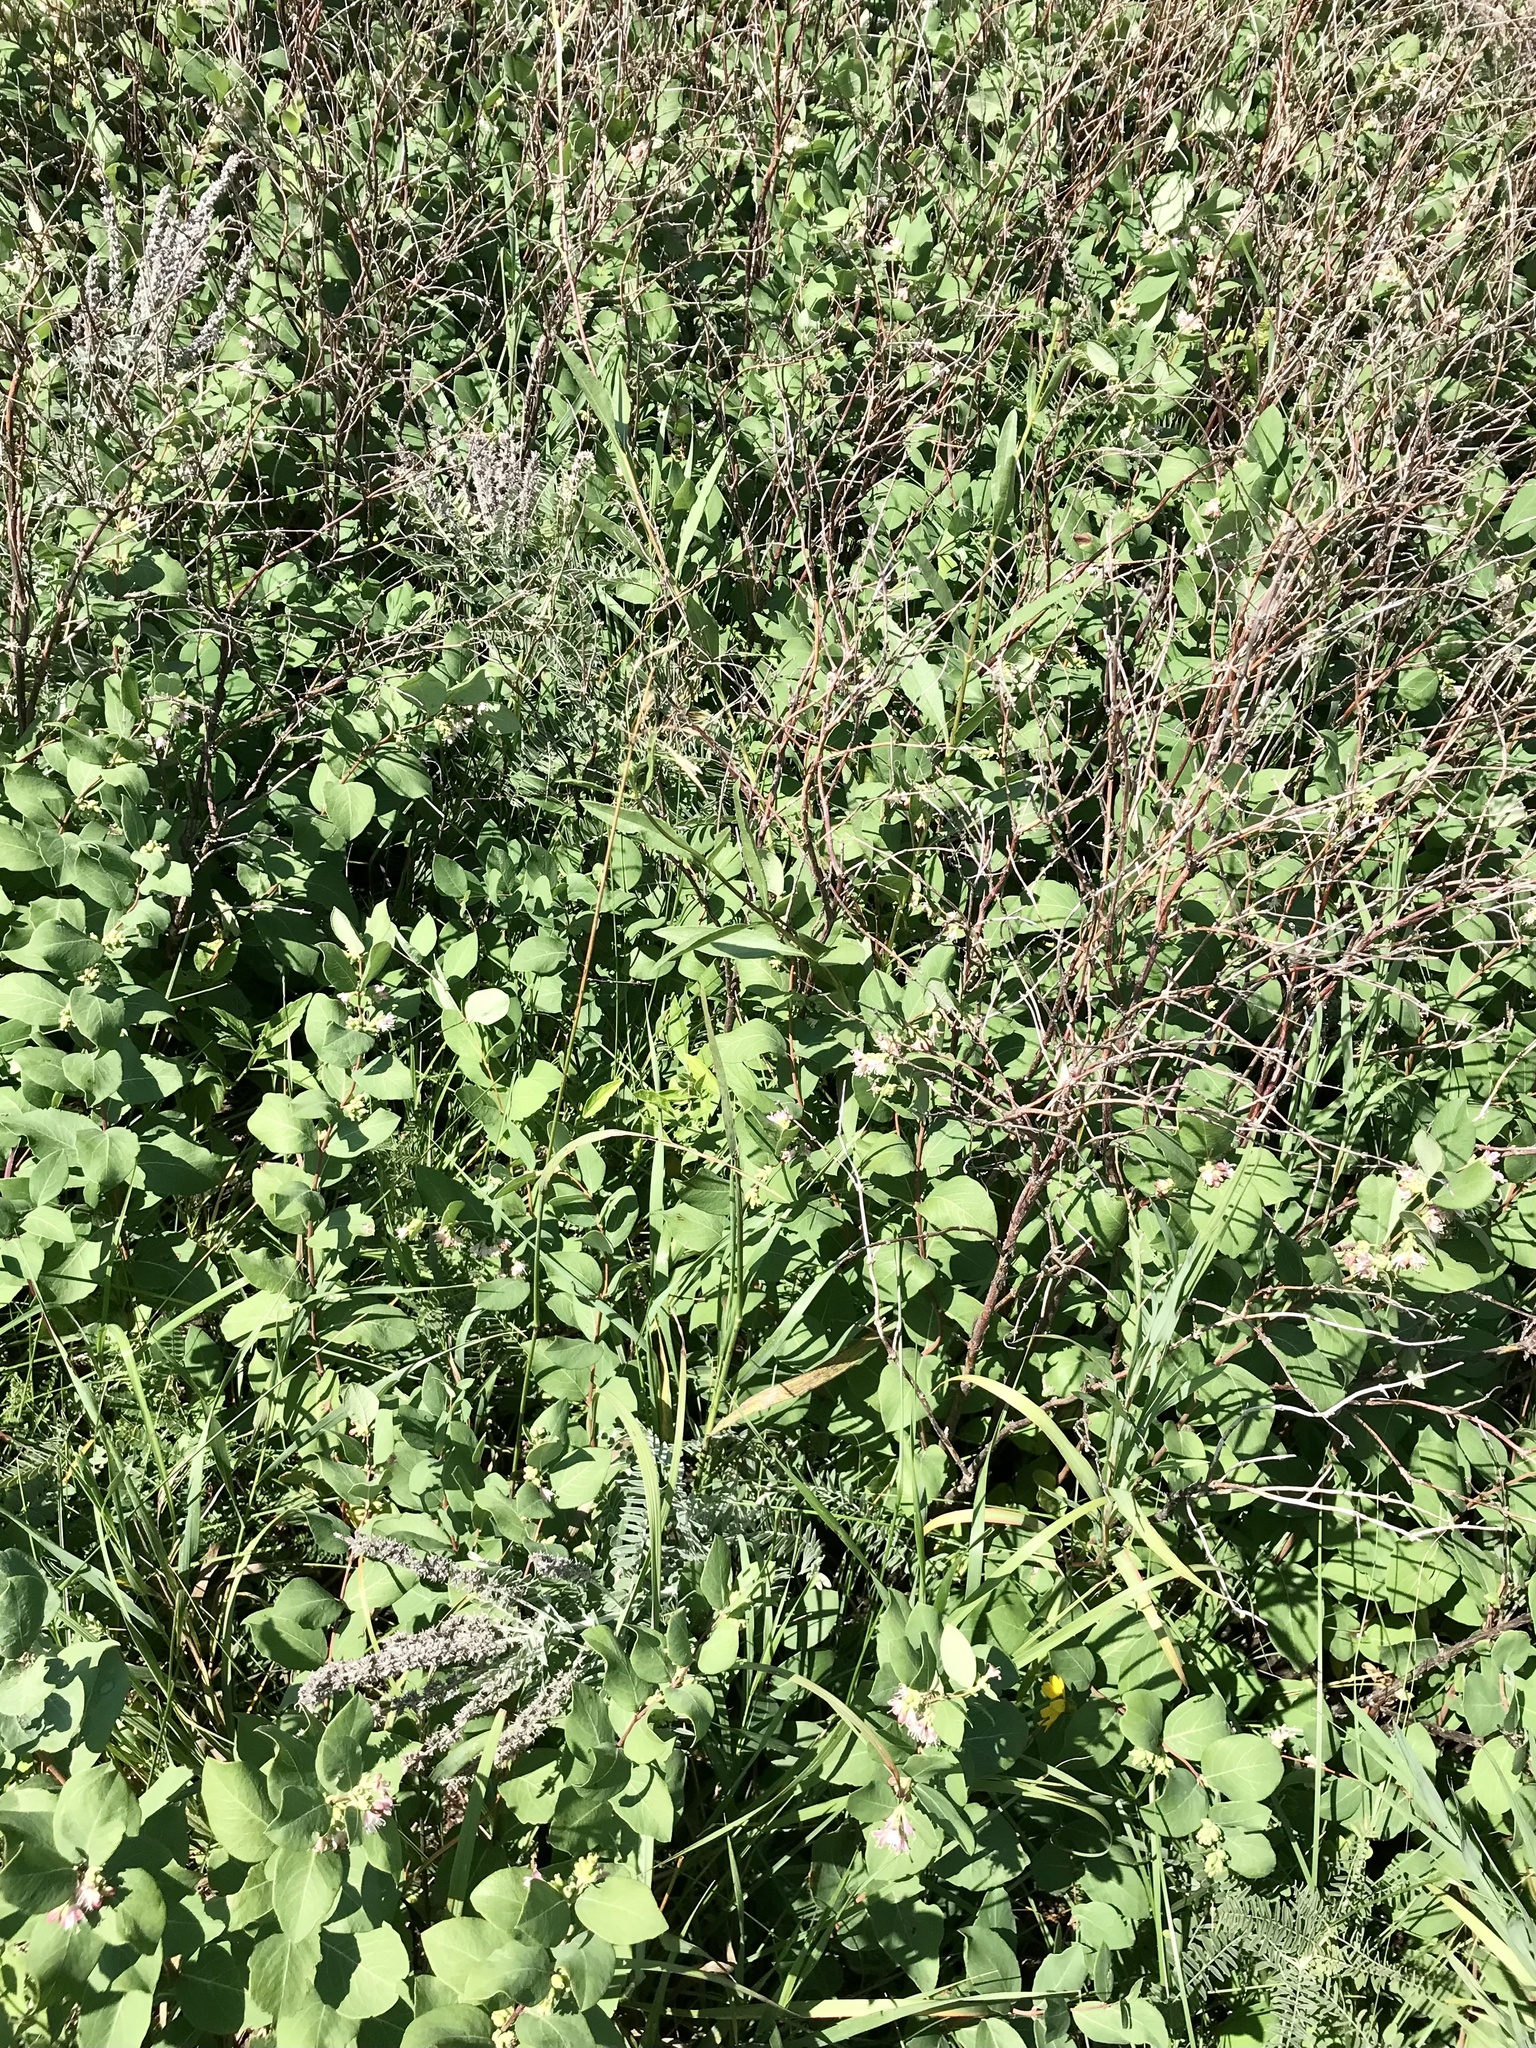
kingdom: Plantae
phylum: Tracheophyta
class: Magnoliopsida
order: Dipsacales
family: Caprifoliaceae
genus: Symphoricarpos
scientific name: Symphoricarpos occidentalis
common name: Wolfberry
